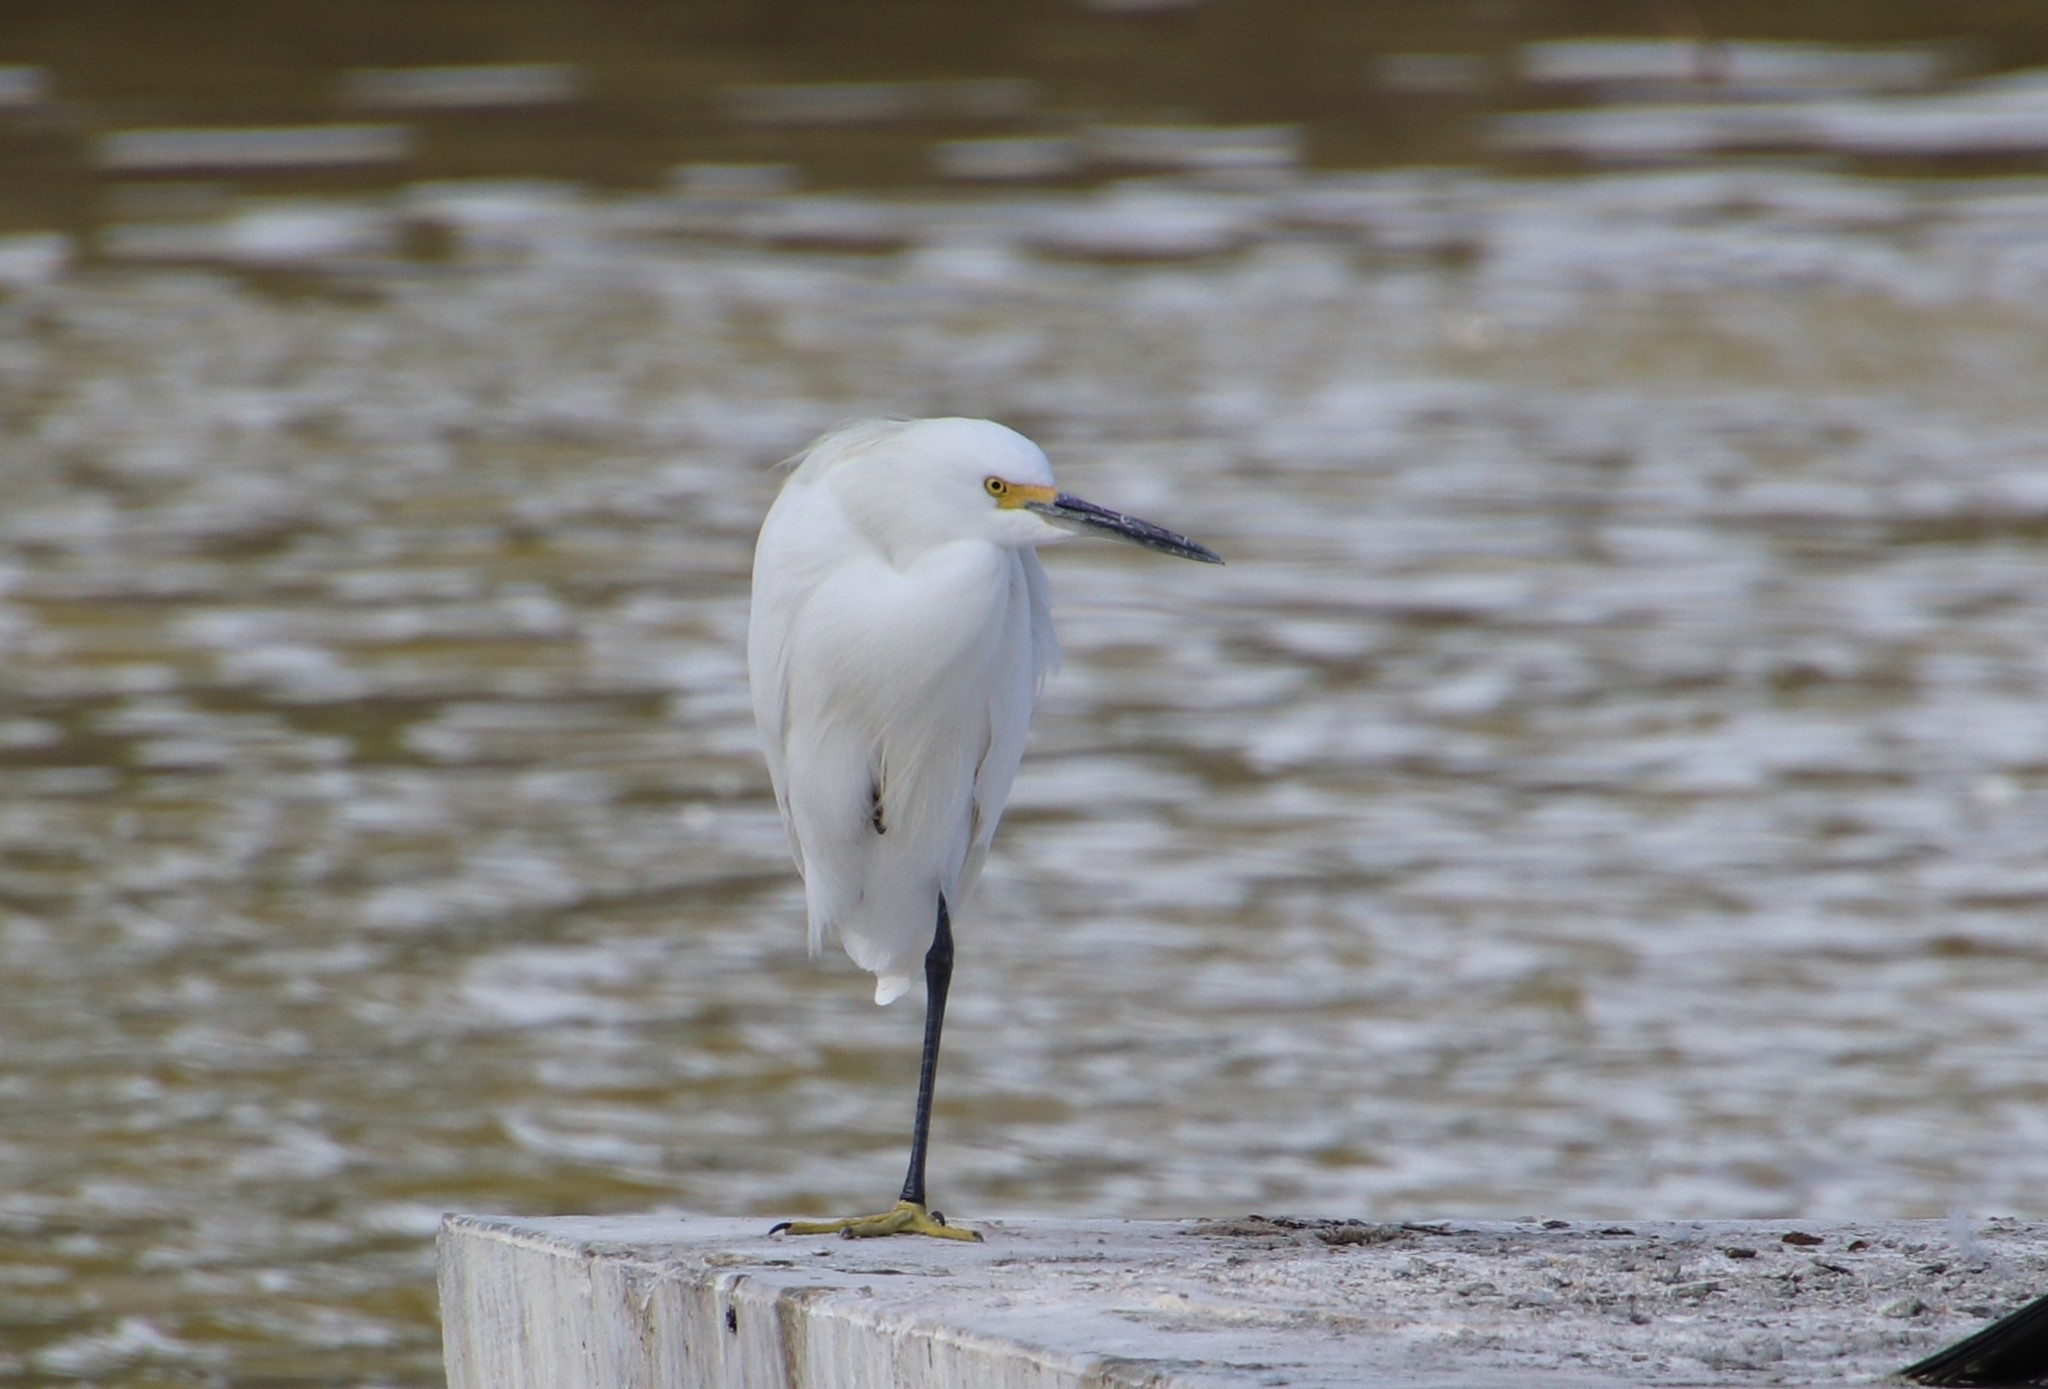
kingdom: Animalia
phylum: Chordata
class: Aves
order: Pelecaniformes
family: Ardeidae
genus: Egretta
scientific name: Egretta thula
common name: Snowy egret
